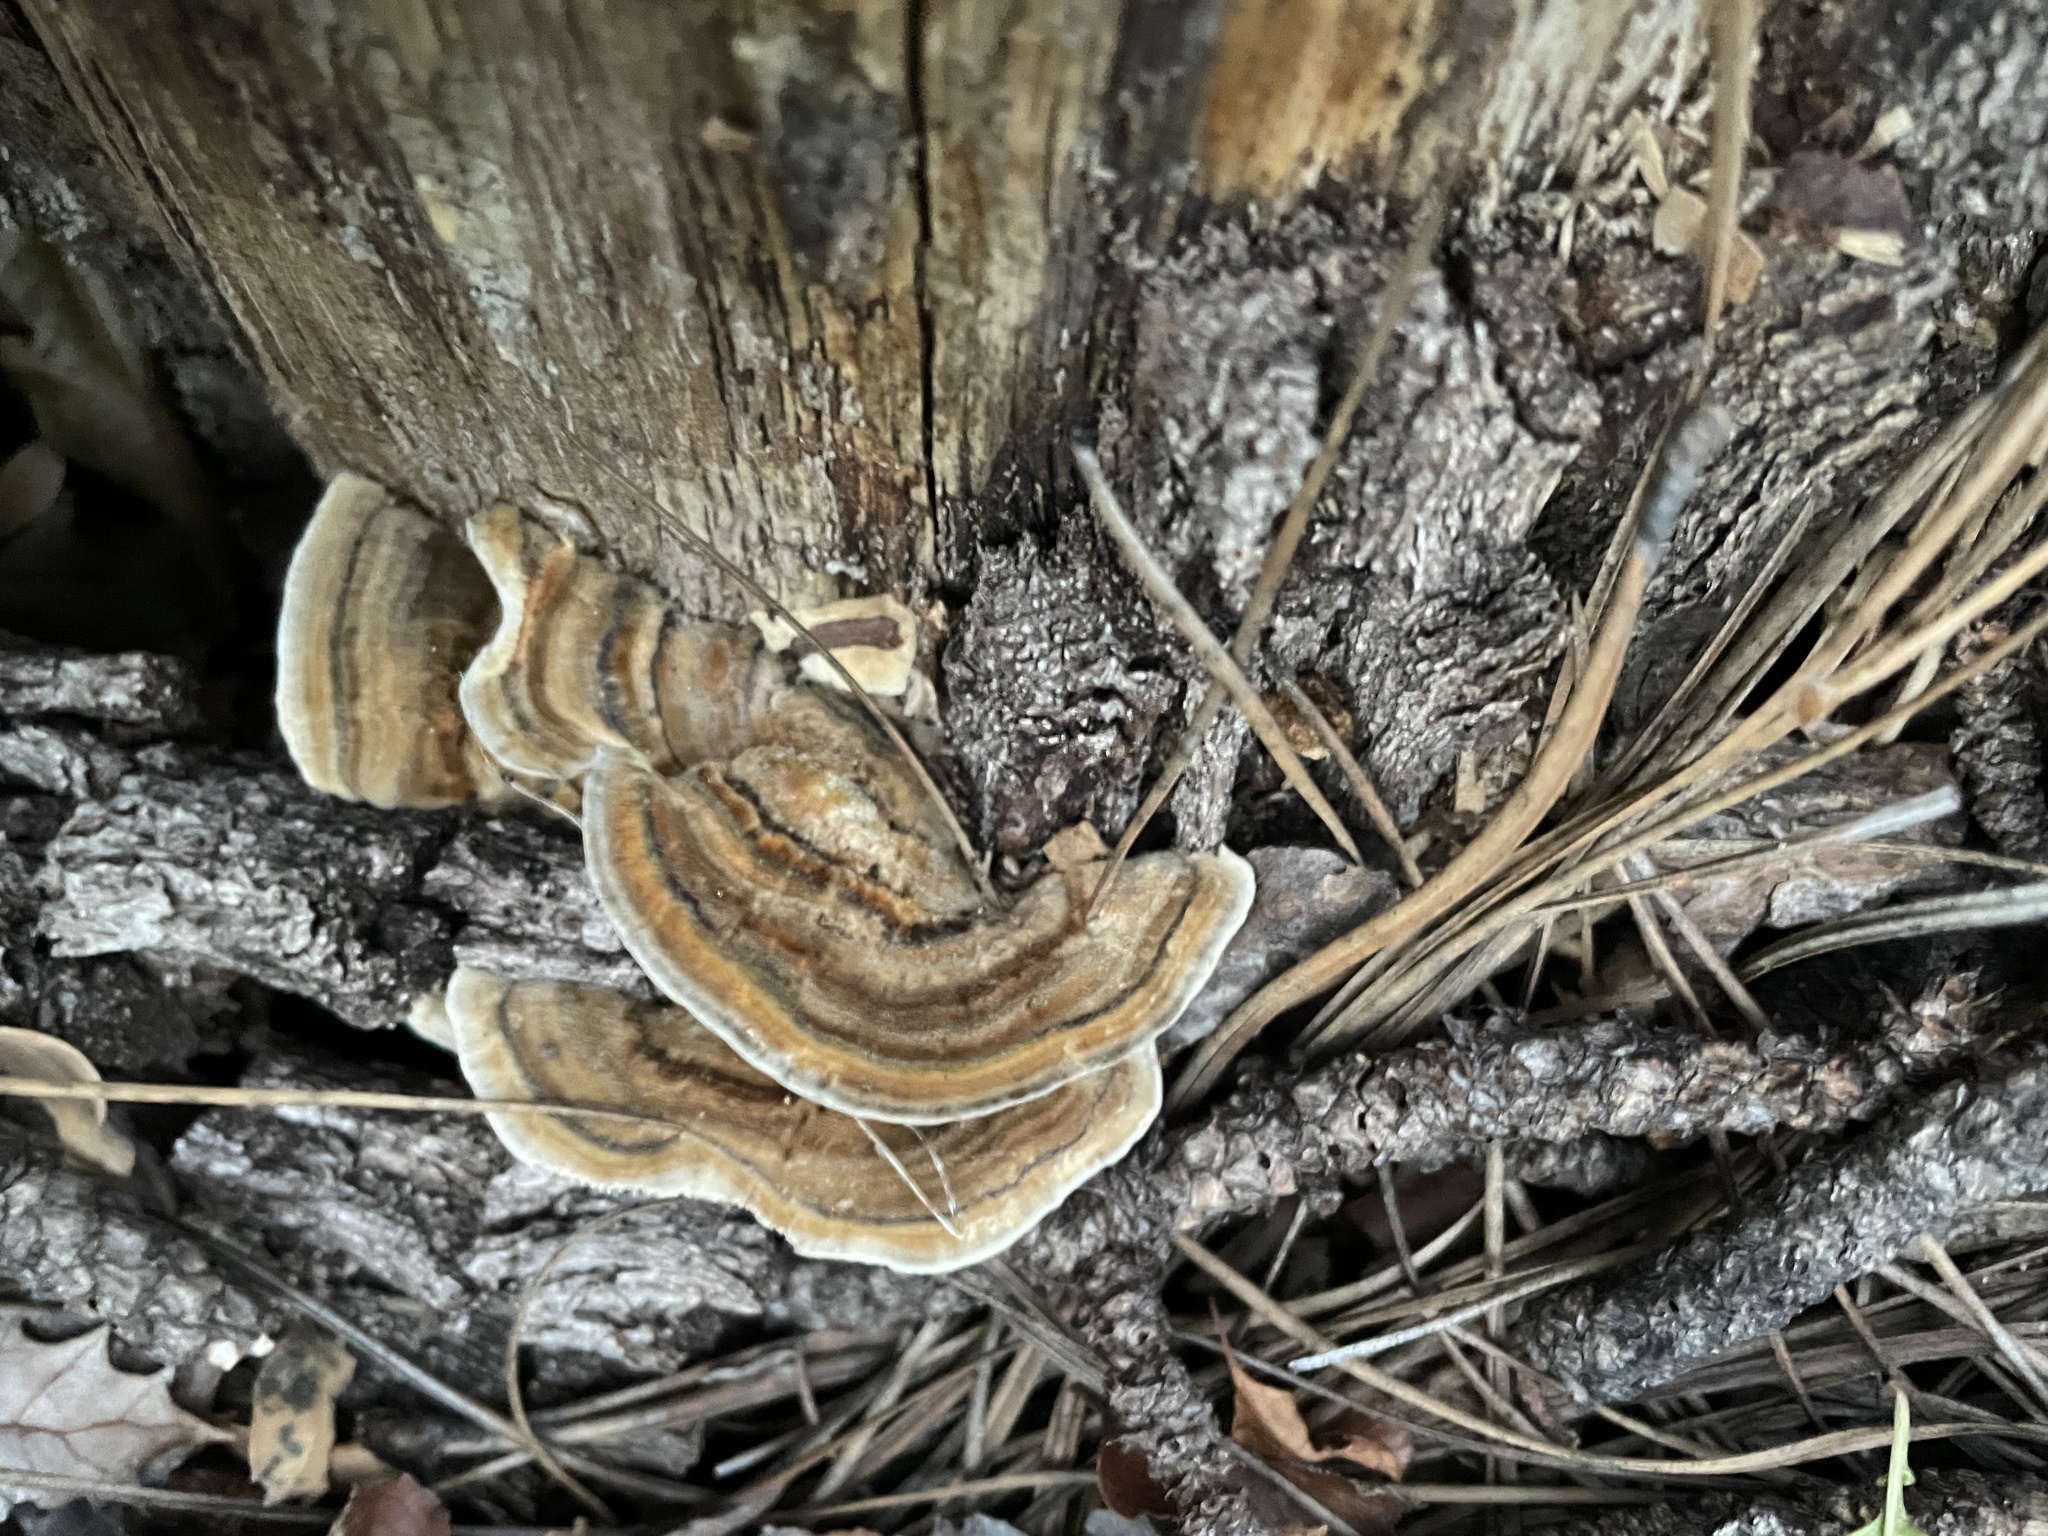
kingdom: Fungi
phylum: Basidiomycota
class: Agaricomycetes
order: Polyporales
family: Polyporaceae
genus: Trametes
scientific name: Trametes versicolor
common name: Turkeytail
